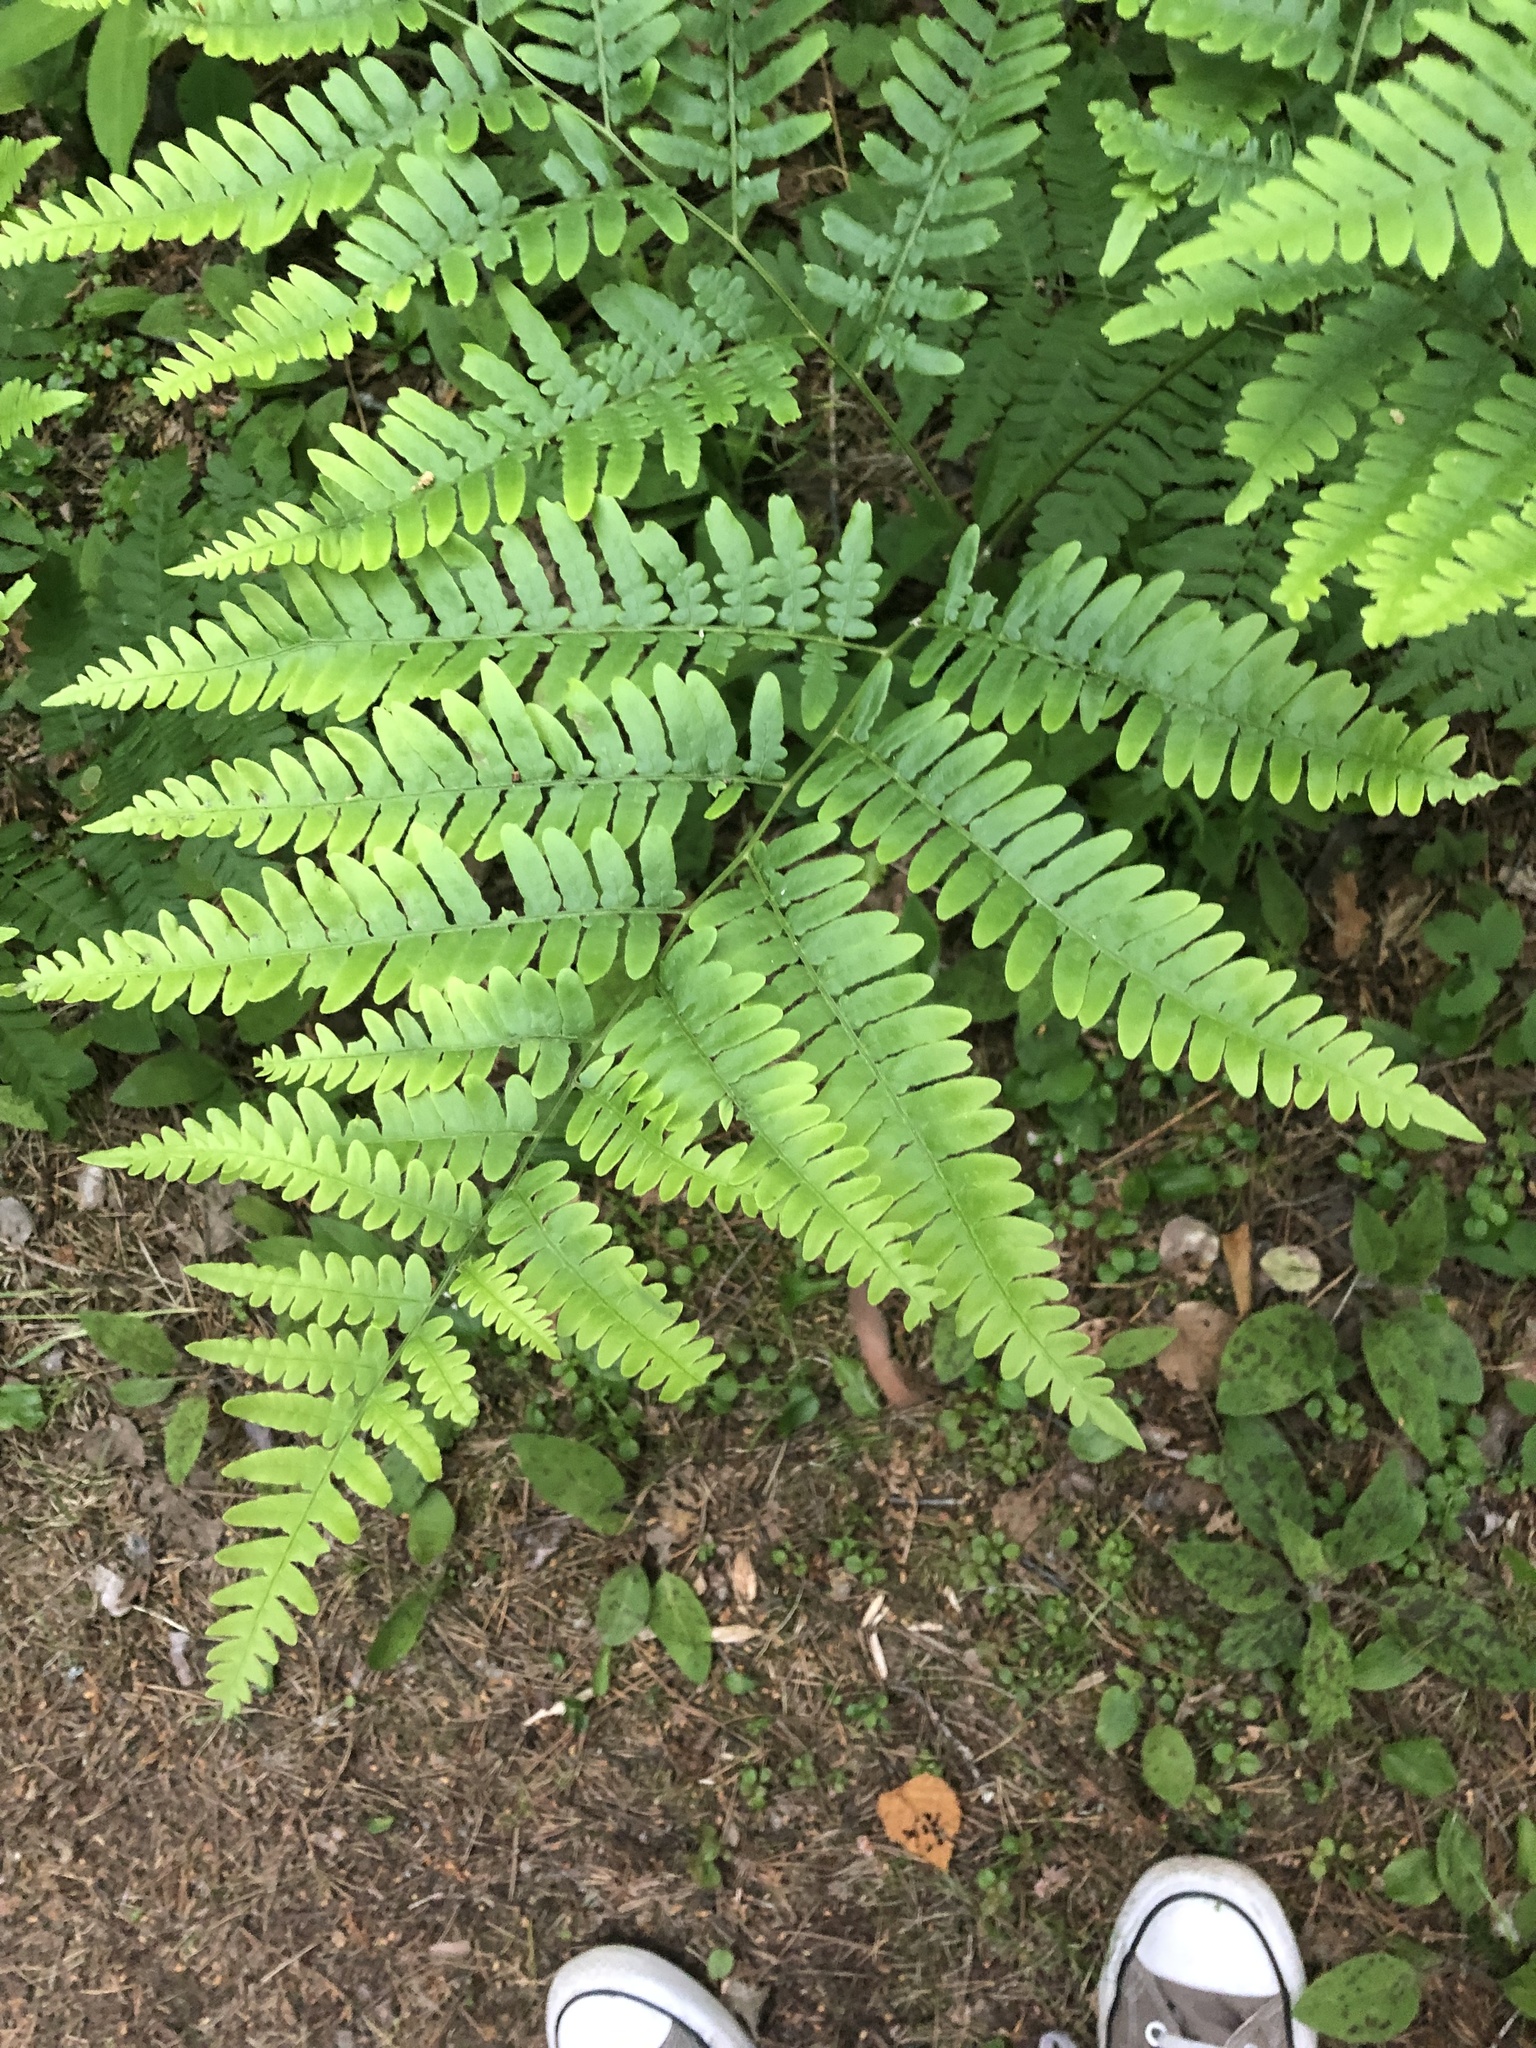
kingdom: Plantae
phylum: Tracheophyta
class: Polypodiopsida
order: Polypodiales
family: Dennstaedtiaceae
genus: Pteridium
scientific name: Pteridium aquilinum
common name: Bracken
